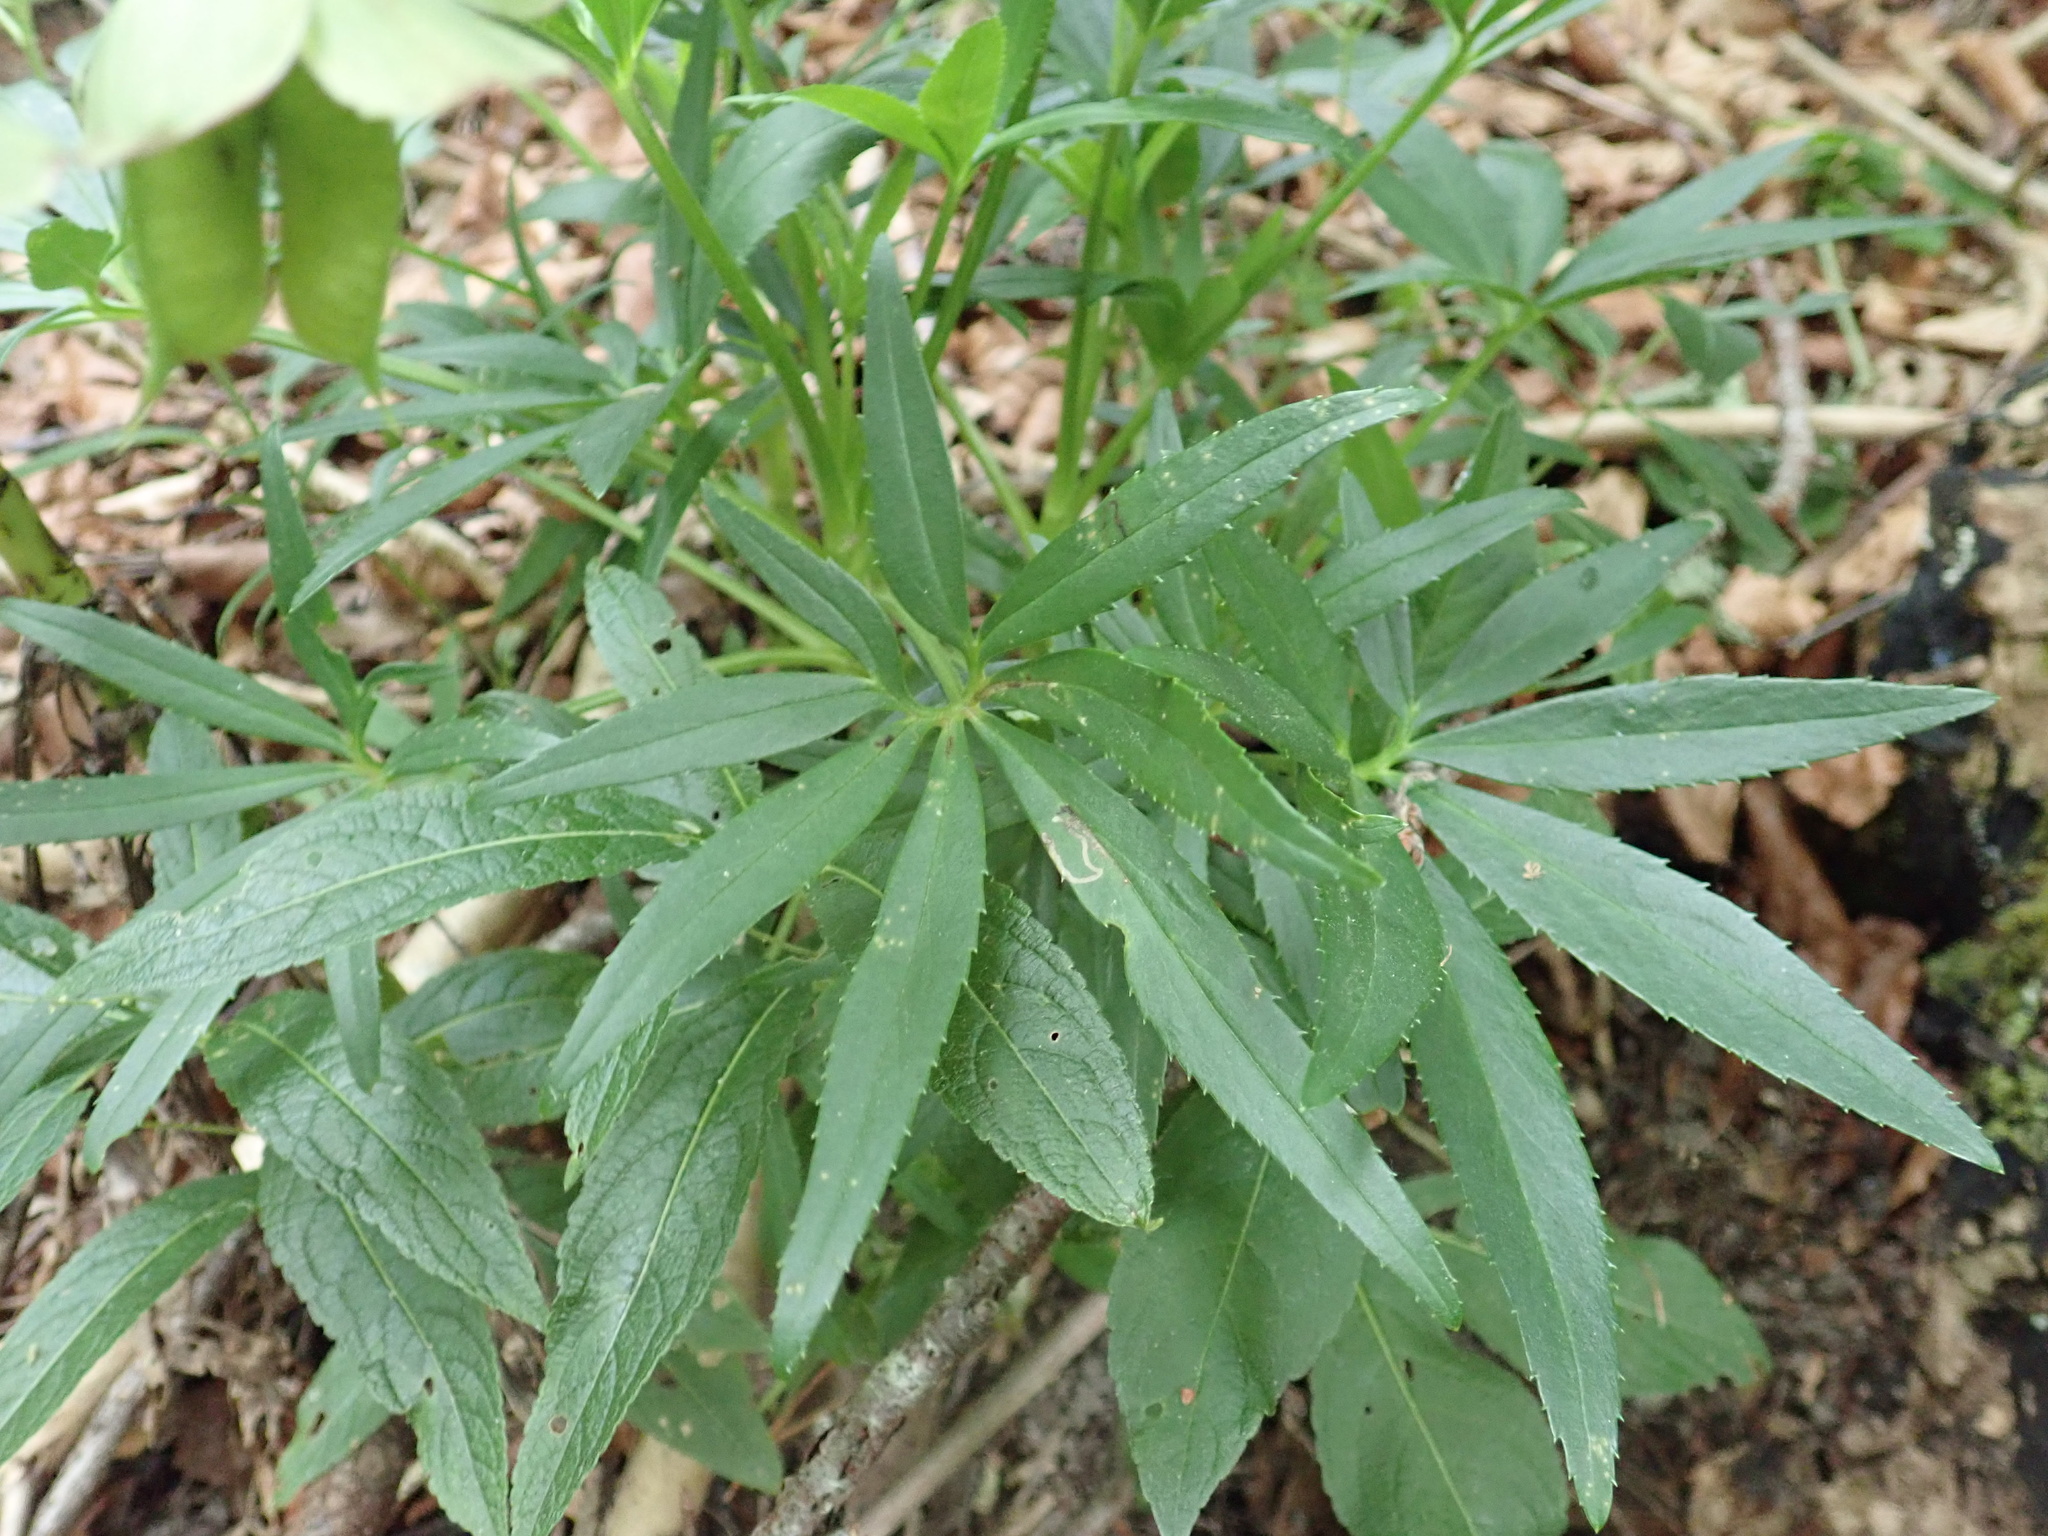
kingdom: Plantae
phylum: Tracheophyta
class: Magnoliopsida
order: Ranunculales
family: Ranunculaceae
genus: Helleborus
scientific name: Helleborus foetidus
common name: Stinking hellebore
